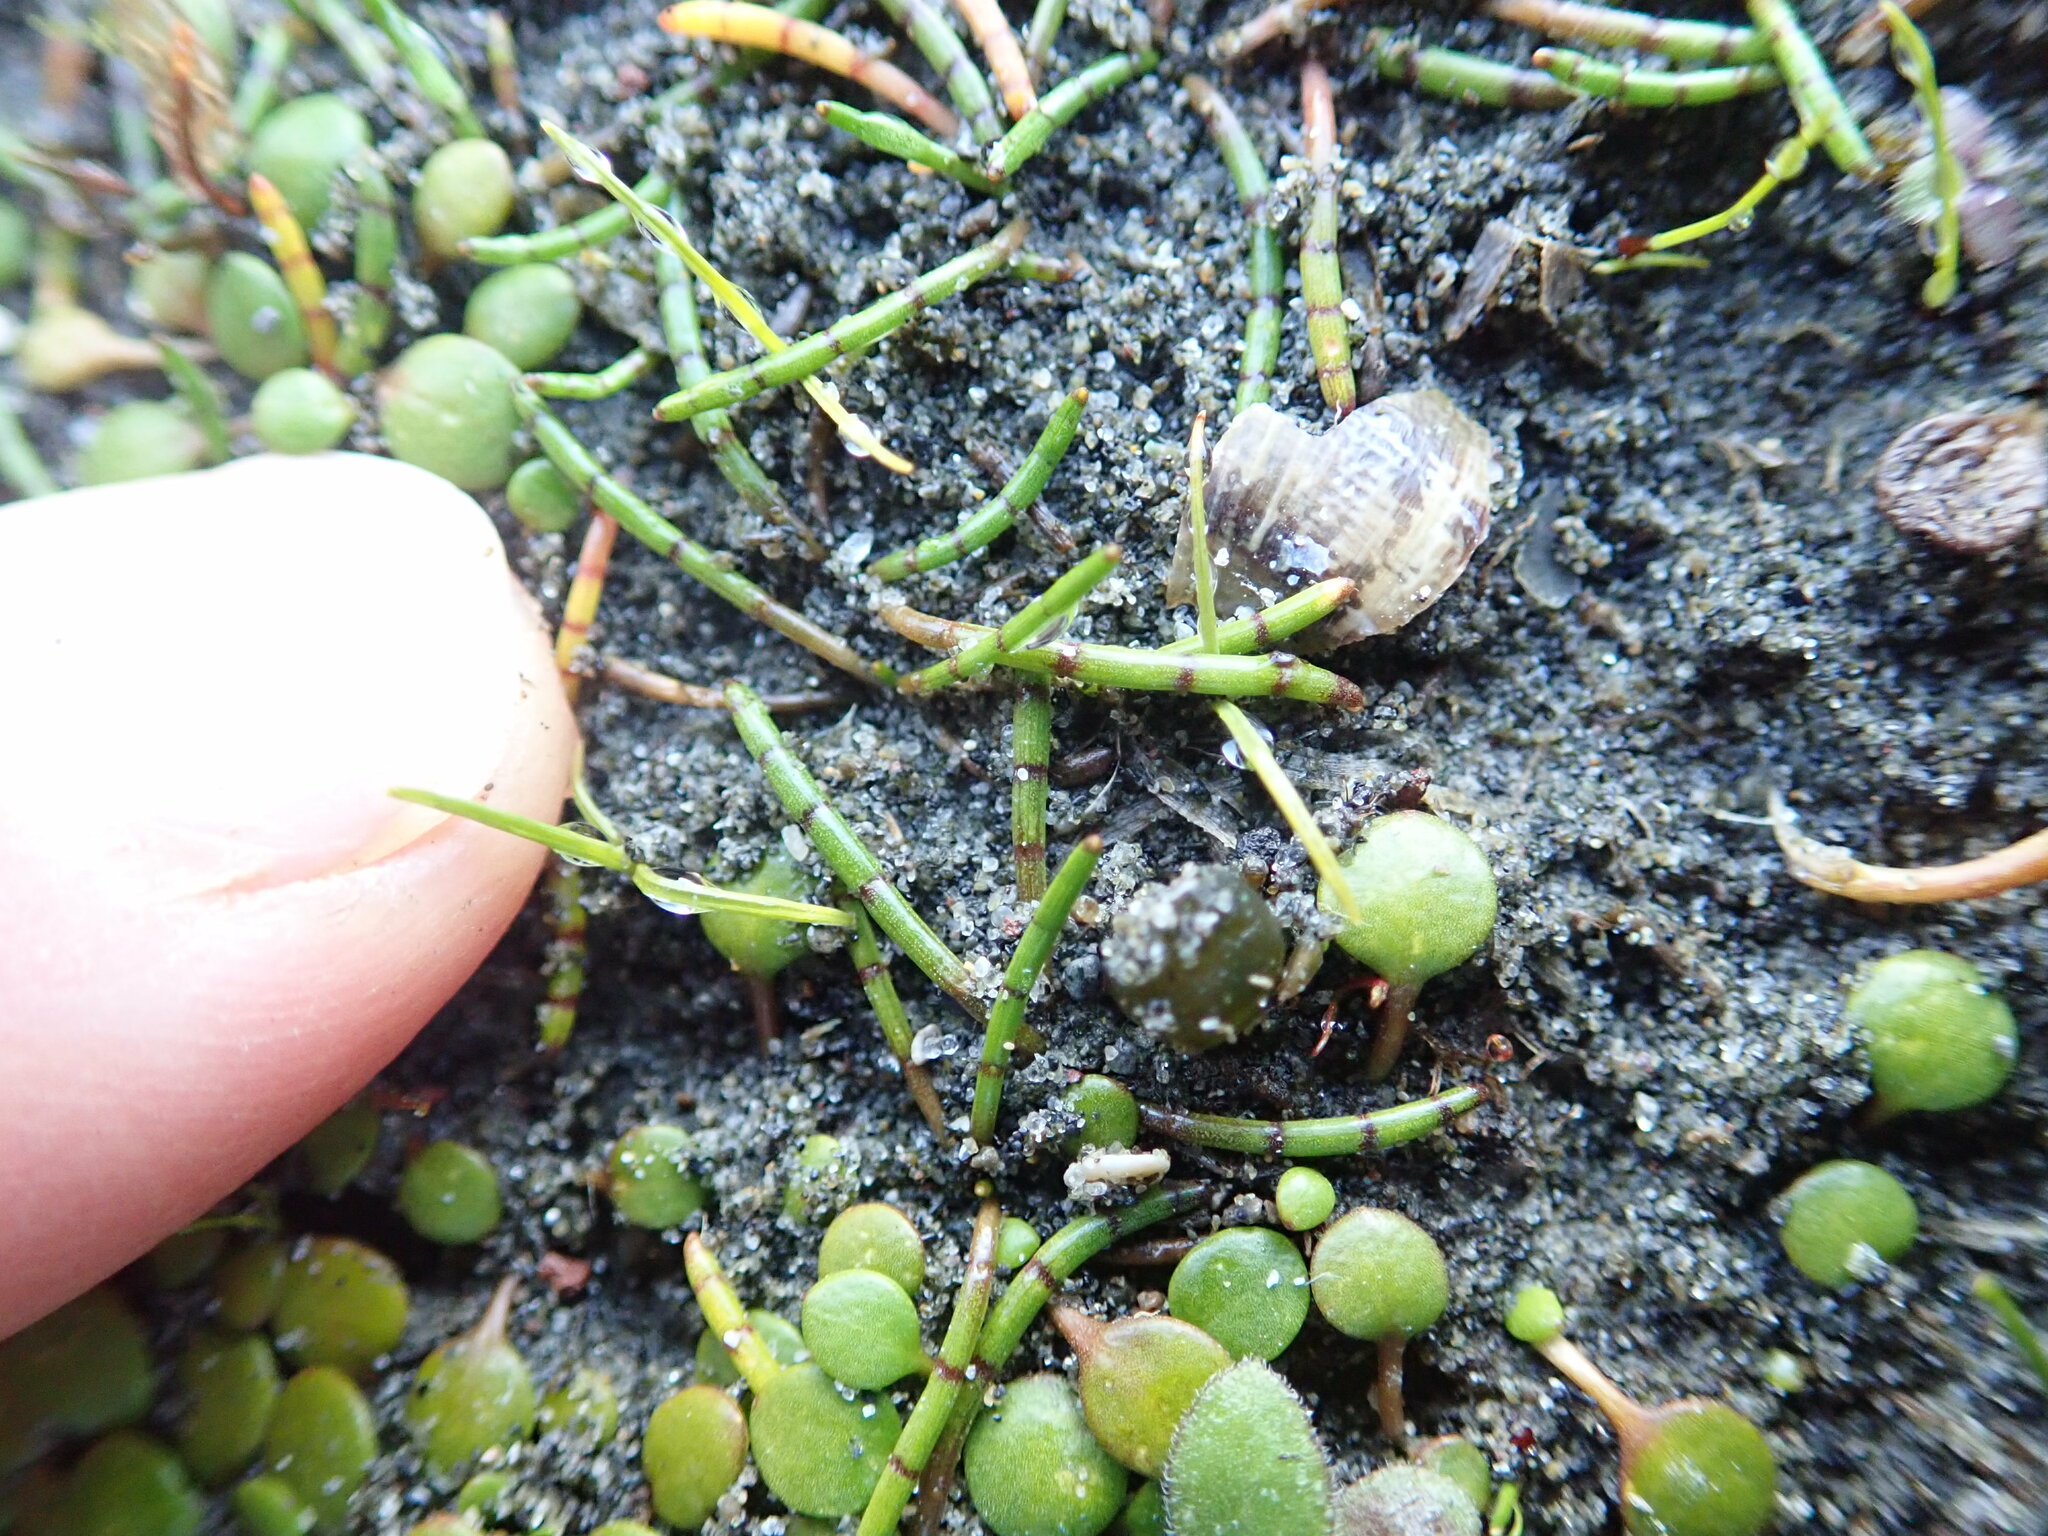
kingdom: Plantae
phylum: Tracheophyta
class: Magnoliopsida
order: Apiales
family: Apiaceae
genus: Lilaeopsis
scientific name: Lilaeopsis novae-zelandiae
